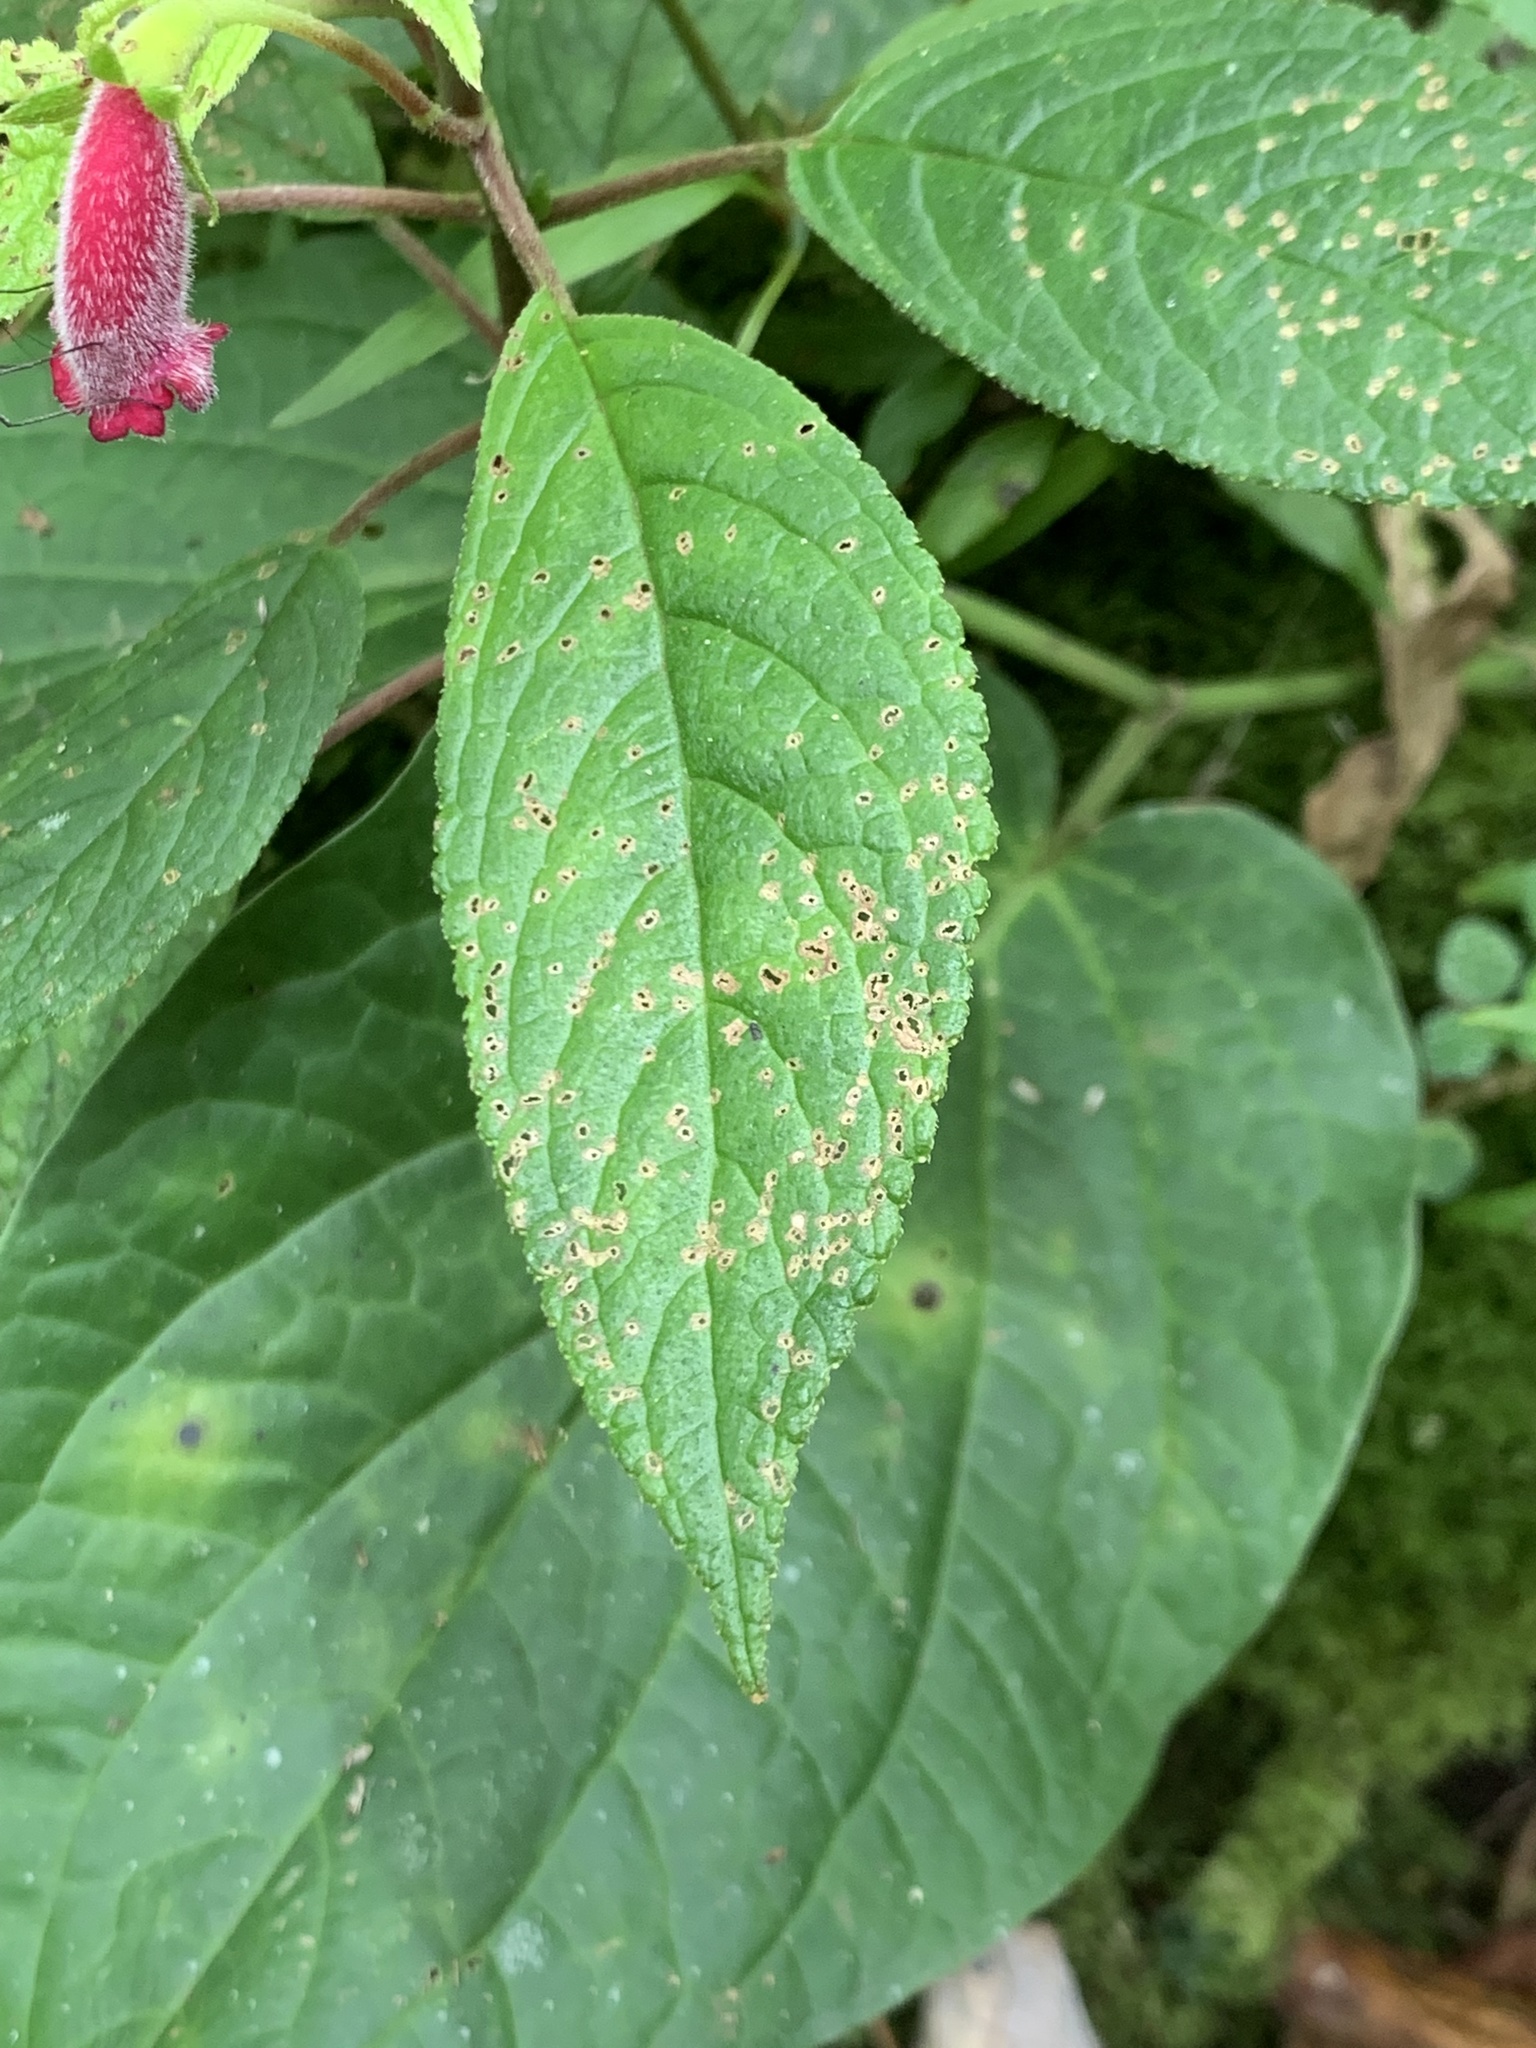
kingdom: Plantae
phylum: Tracheophyta
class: Magnoliopsida
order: Lamiales
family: Gesneriaceae
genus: Kohleria
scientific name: Kohleria inaequalis
